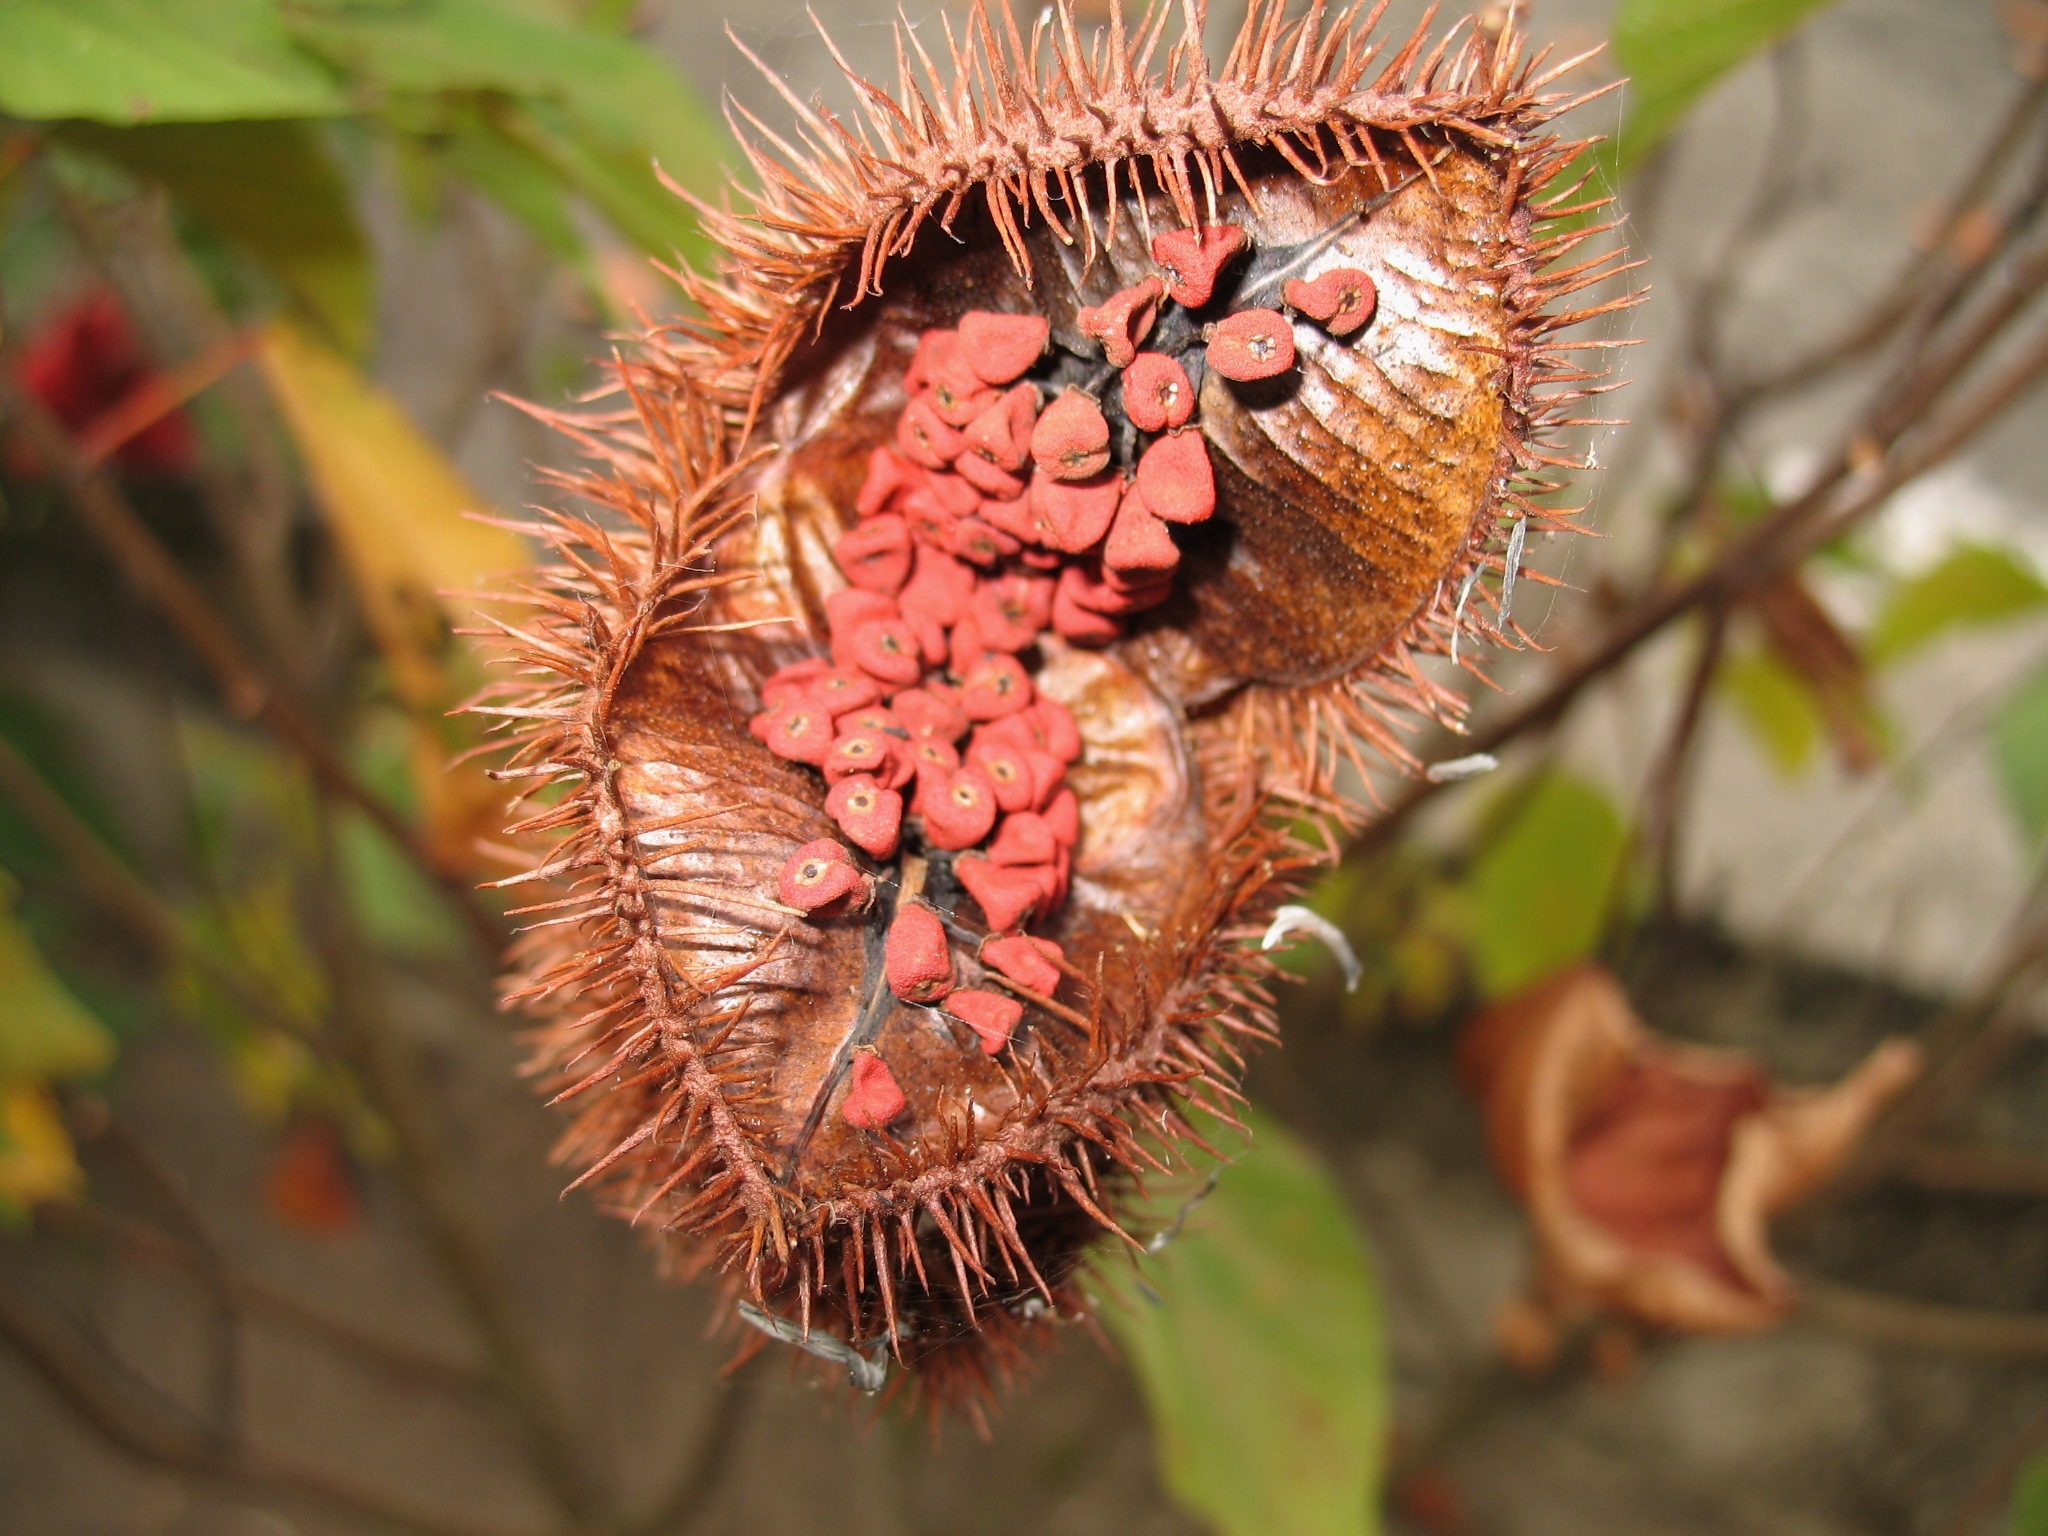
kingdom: Plantae
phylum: Tracheophyta
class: Magnoliopsida
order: Malvales
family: Bixaceae
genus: Bixa
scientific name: Bixa orellana
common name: Lipsticktree
